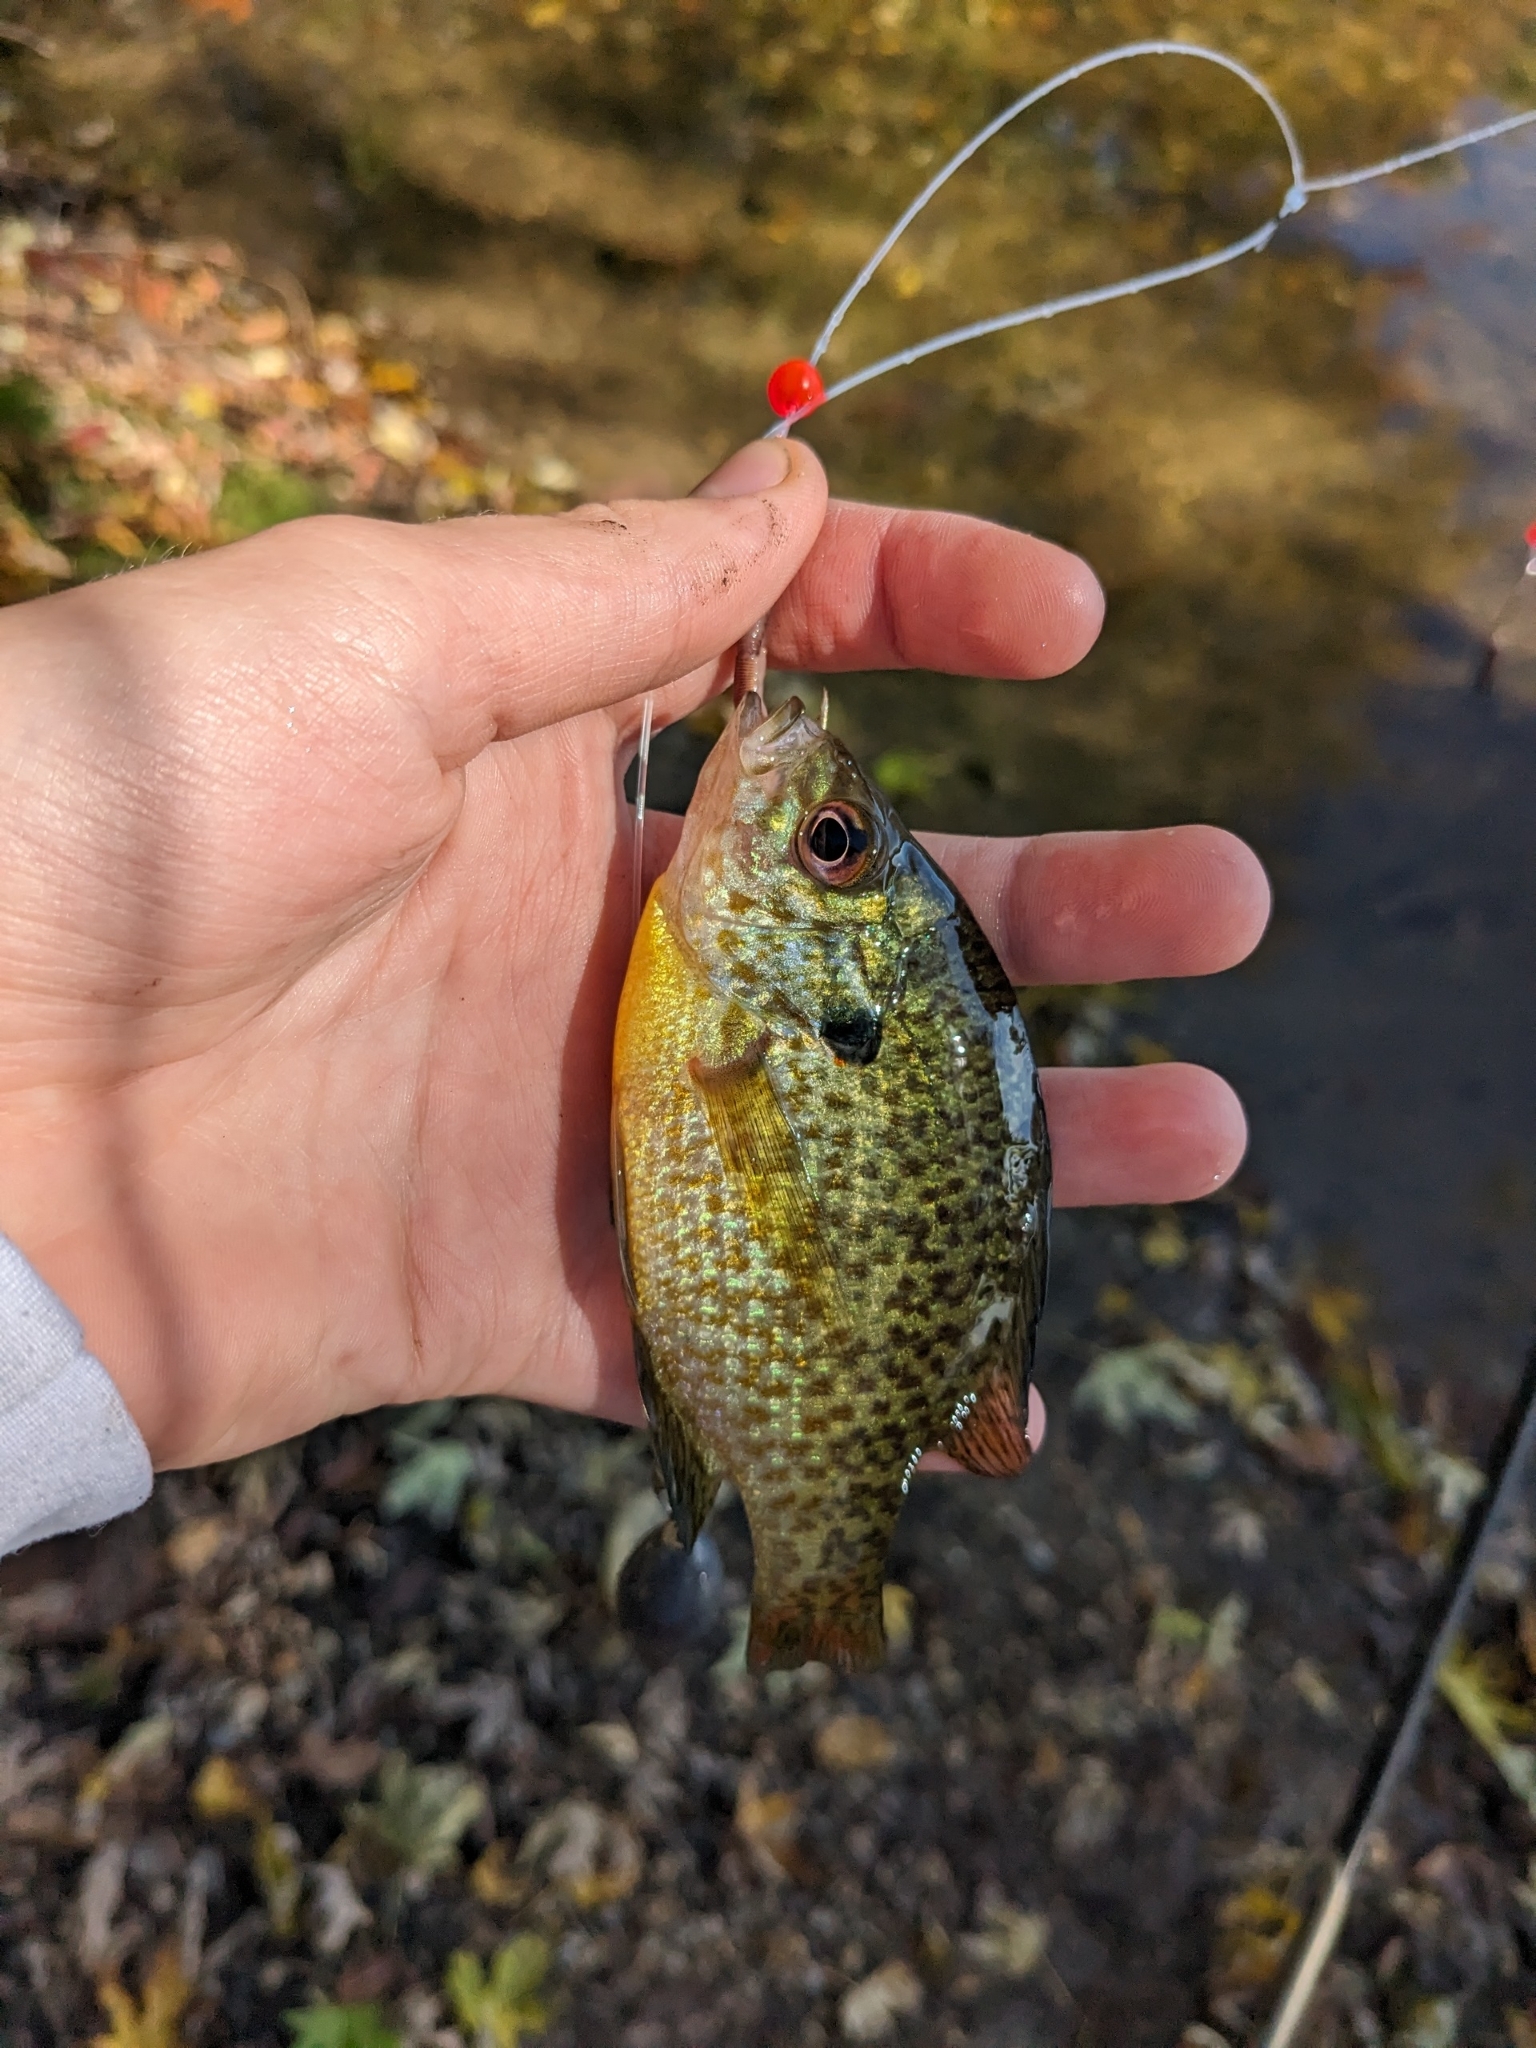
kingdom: Animalia
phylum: Chordata
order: Perciformes
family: Centrarchidae
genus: Lepomis
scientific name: Lepomis
